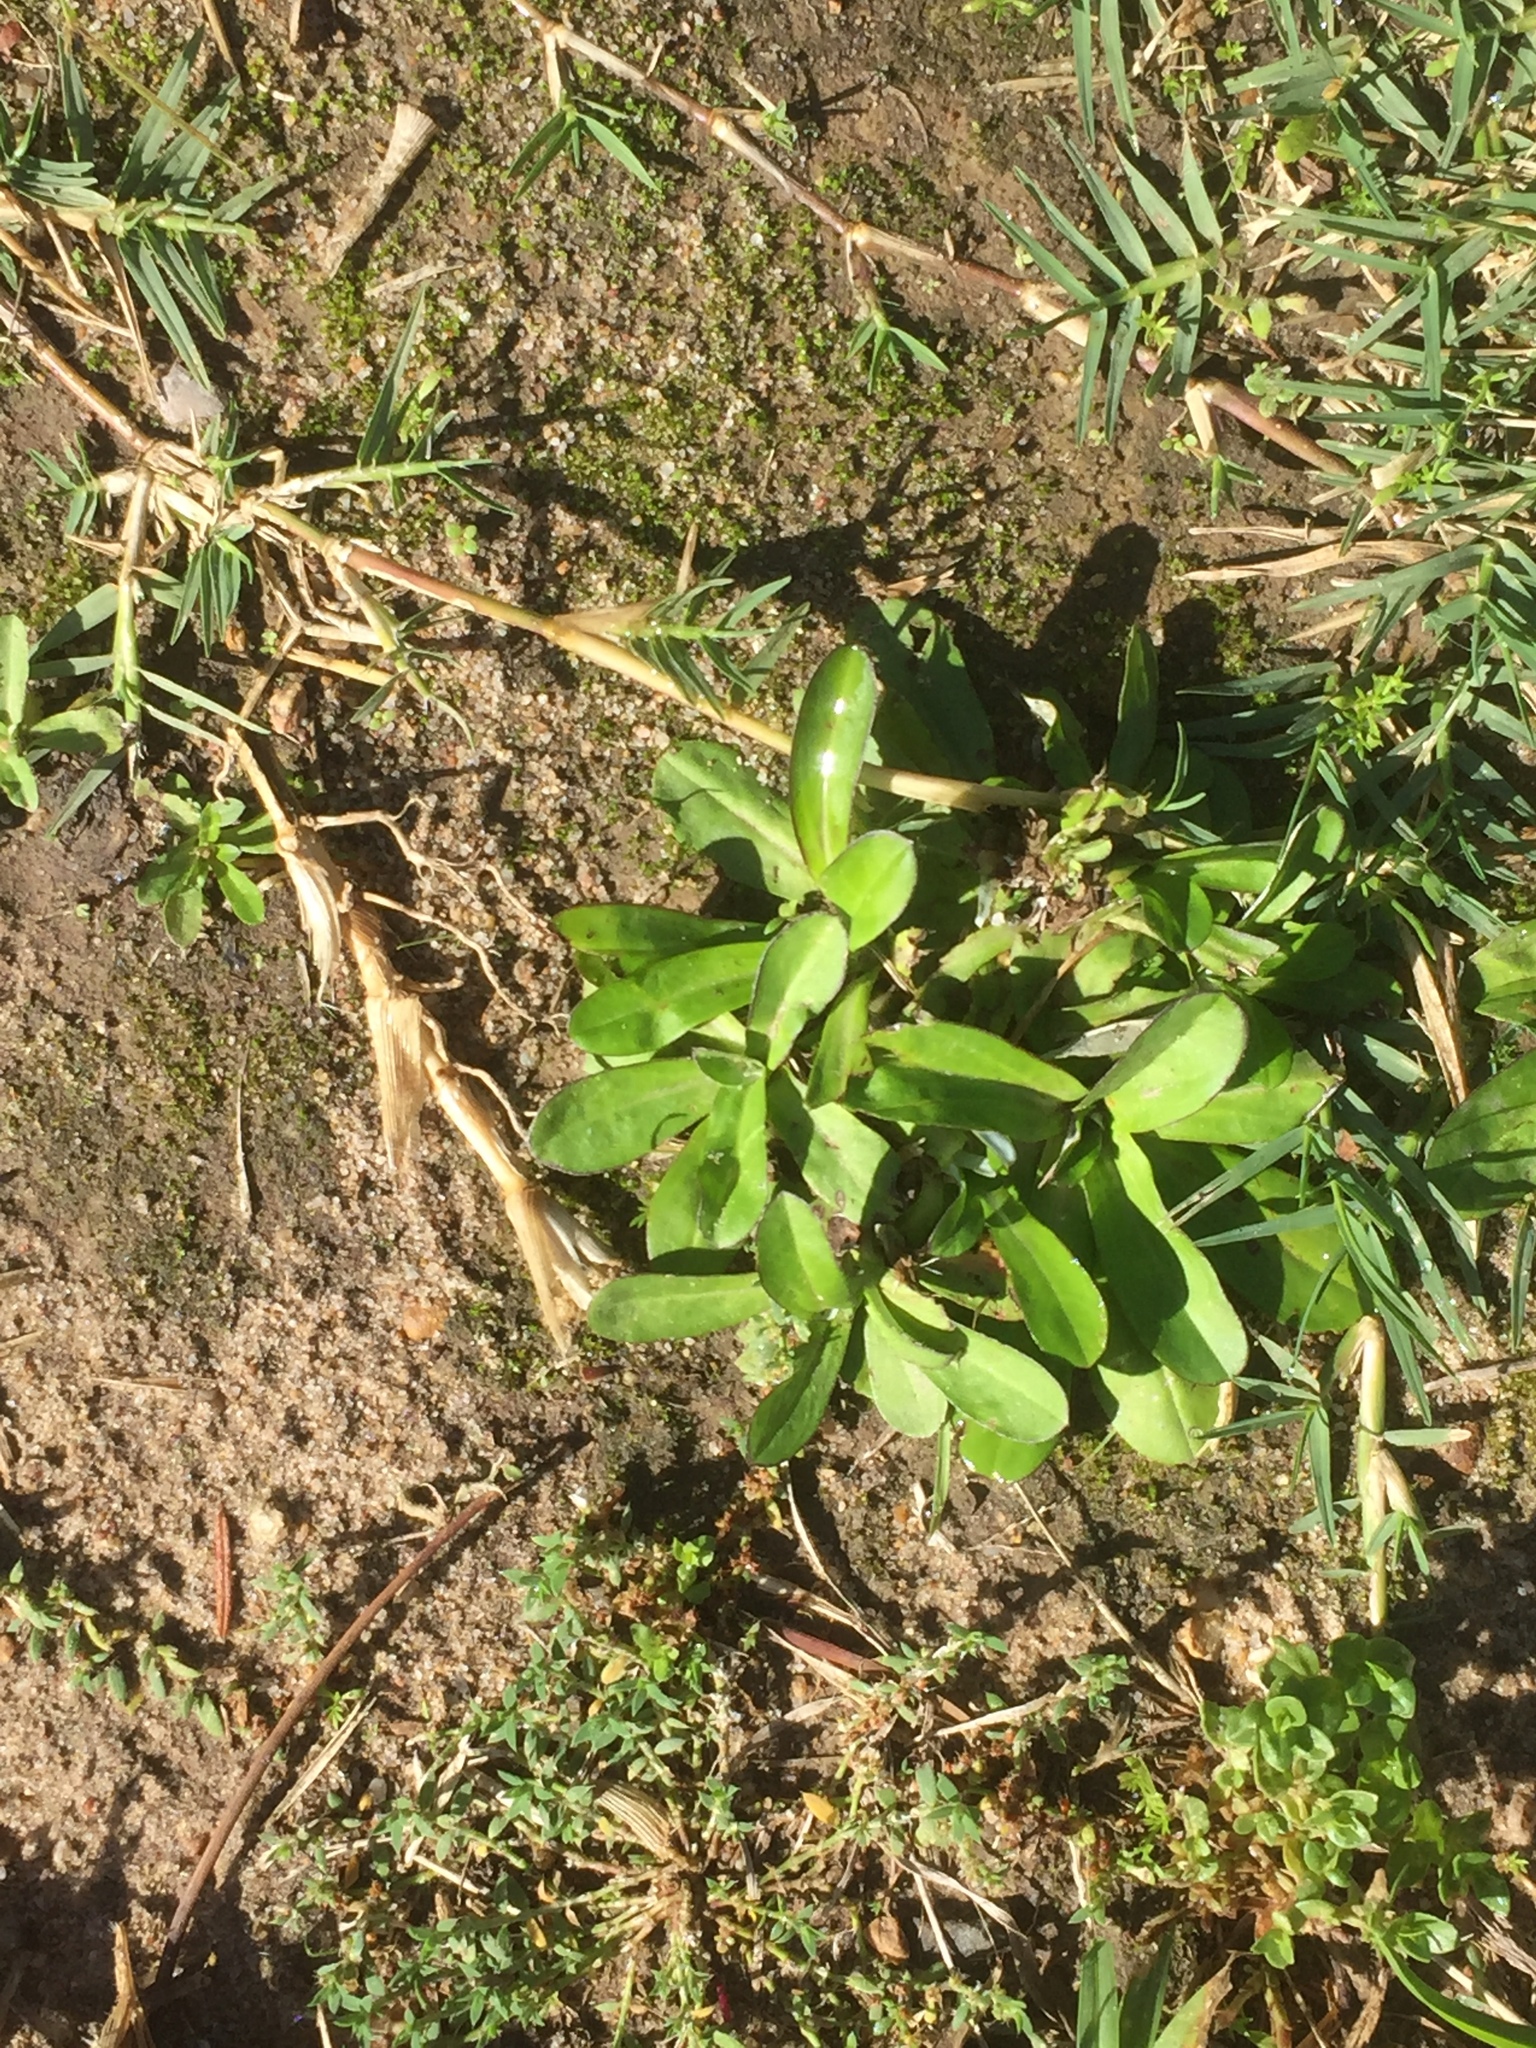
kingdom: Plantae
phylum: Tracheophyta
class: Magnoliopsida
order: Asterales
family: Asteraceae
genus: Gamochaeta
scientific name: Gamochaeta americana
